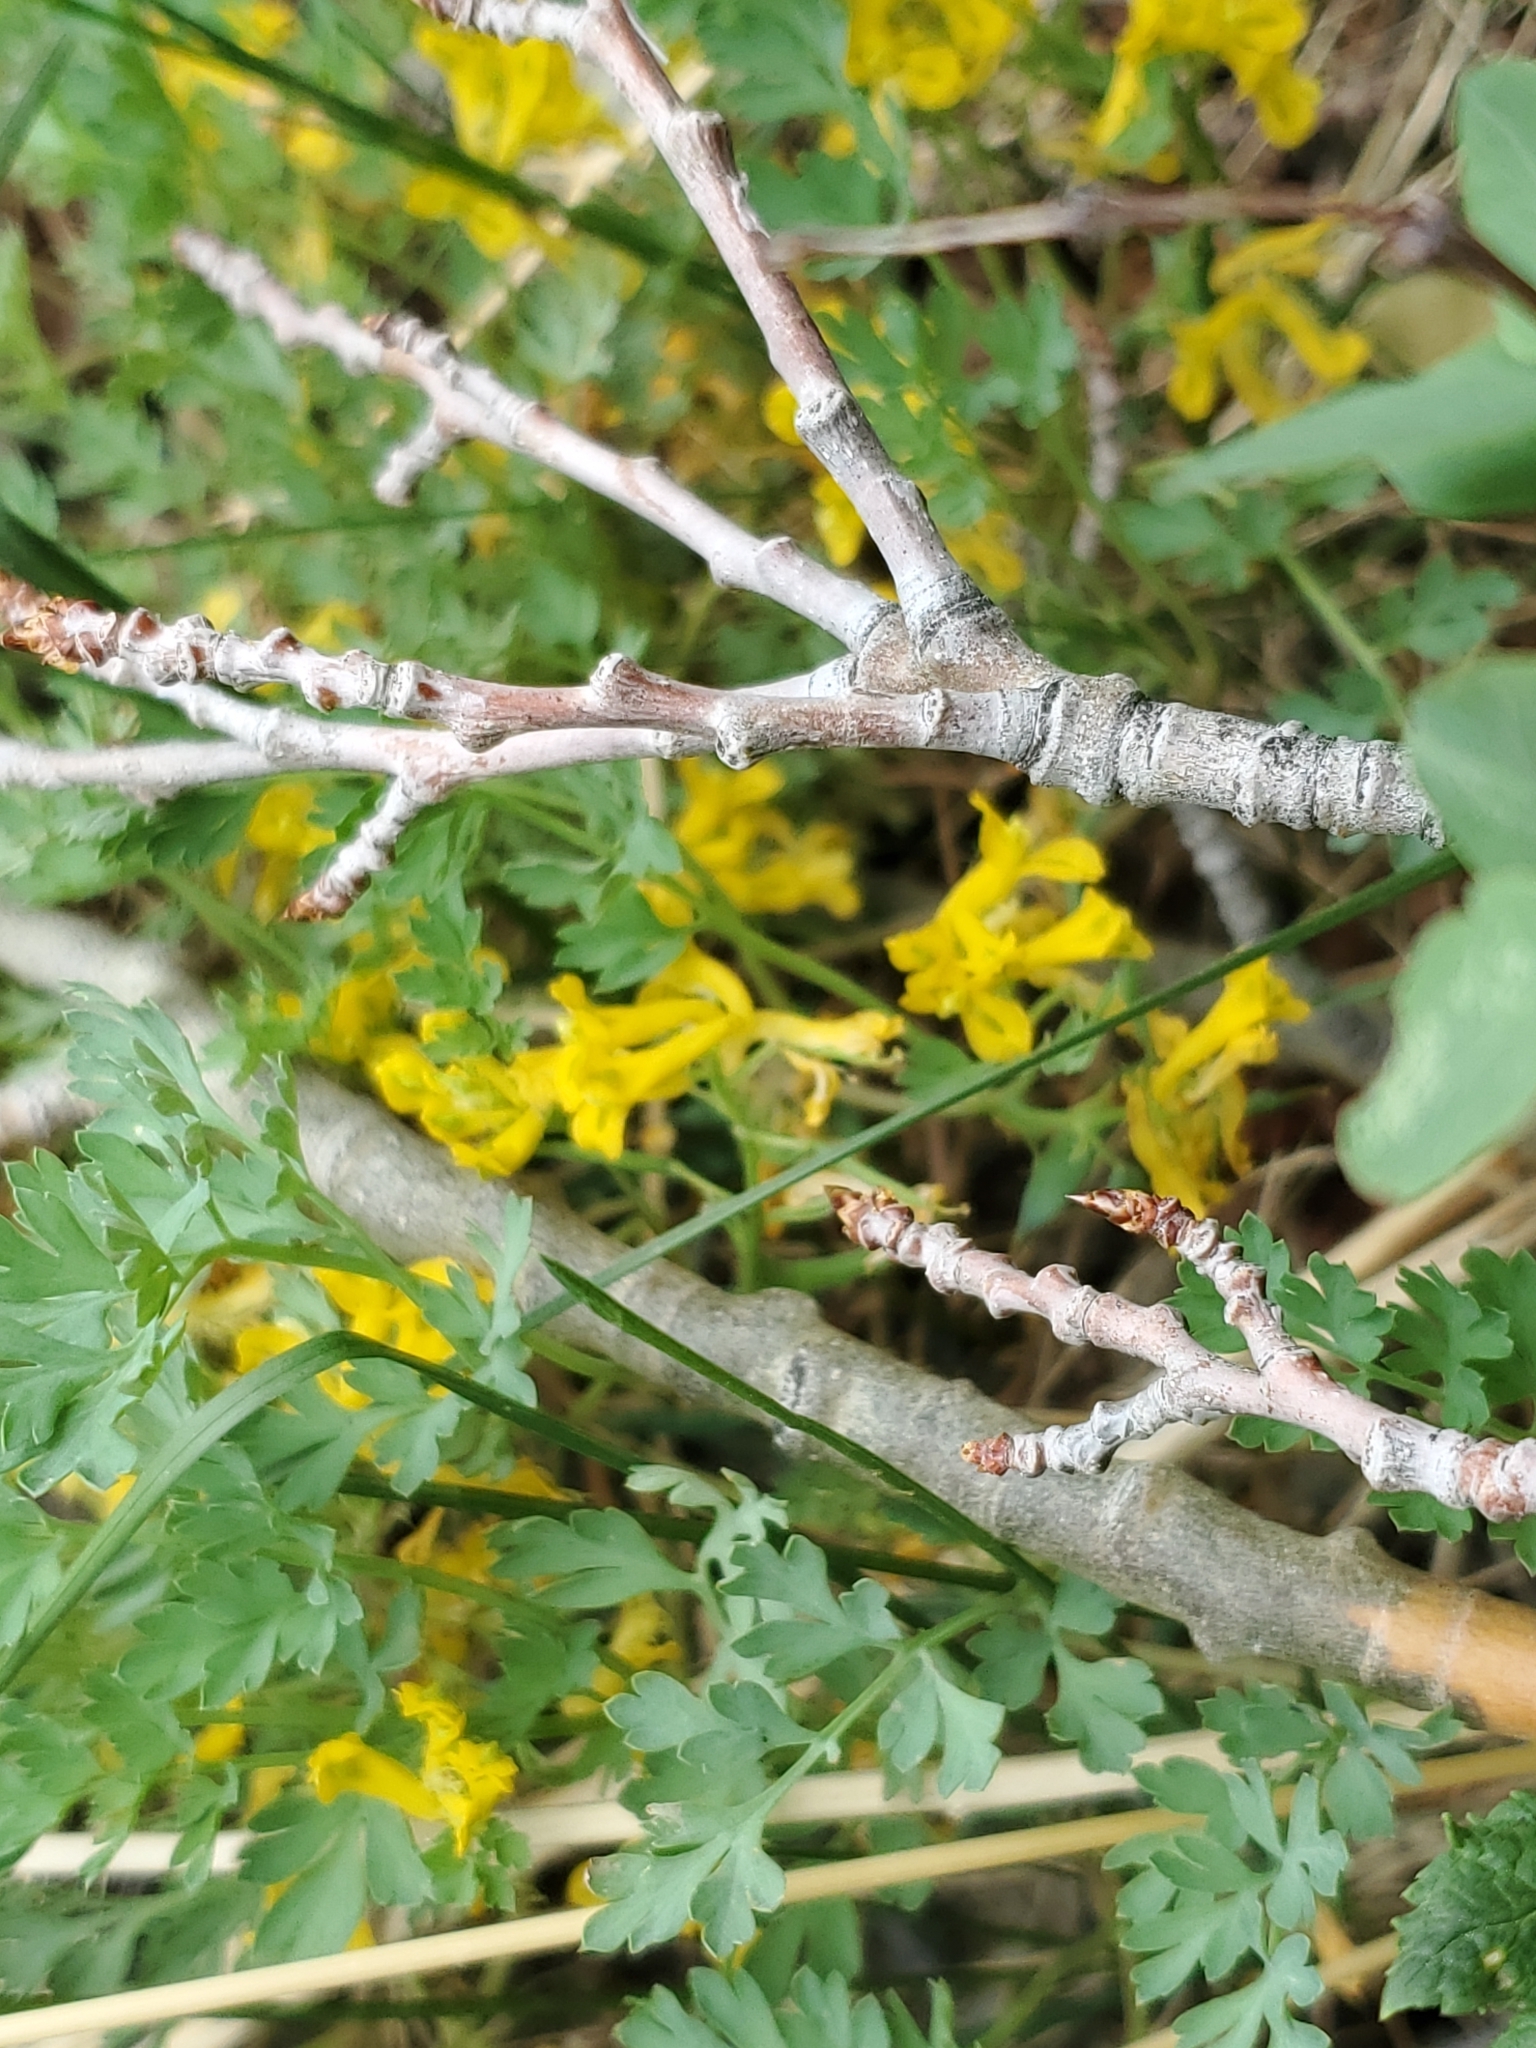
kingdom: Plantae
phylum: Tracheophyta
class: Magnoliopsida
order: Ranunculales
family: Papaveraceae
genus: Corydalis
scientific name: Corydalis aurea
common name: Golden corydalis
